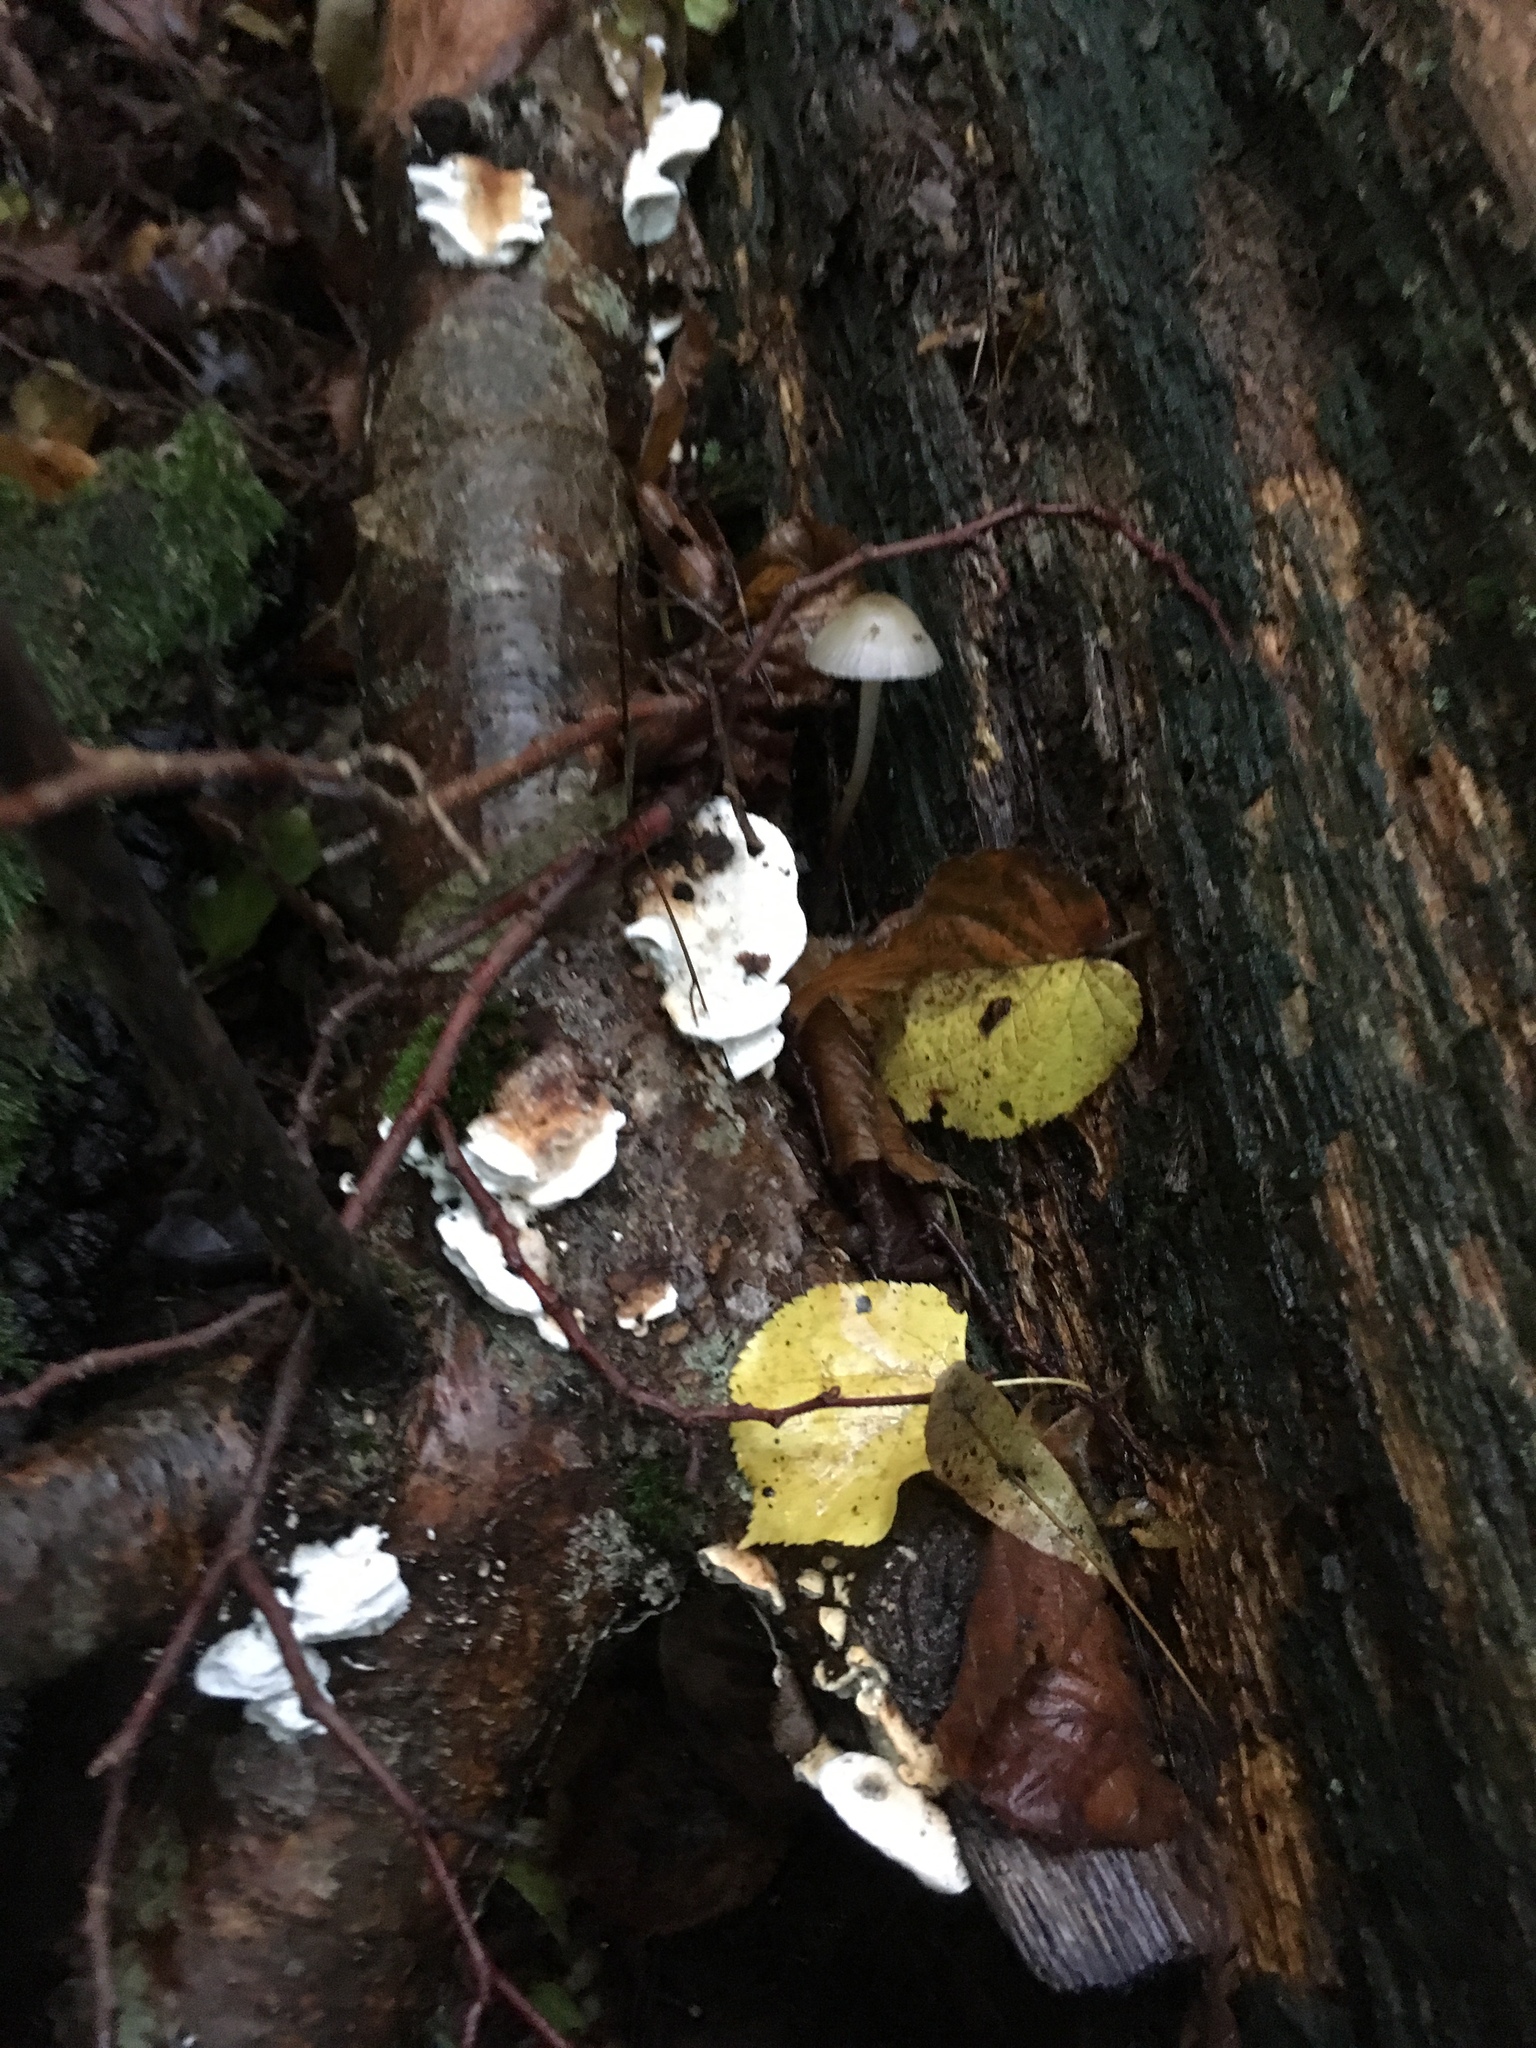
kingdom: Fungi
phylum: Basidiomycota
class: Agaricomycetes
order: Polyporales
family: Incrustoporiaceae
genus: Skeletocutis
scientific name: Skeletocutis nivea
